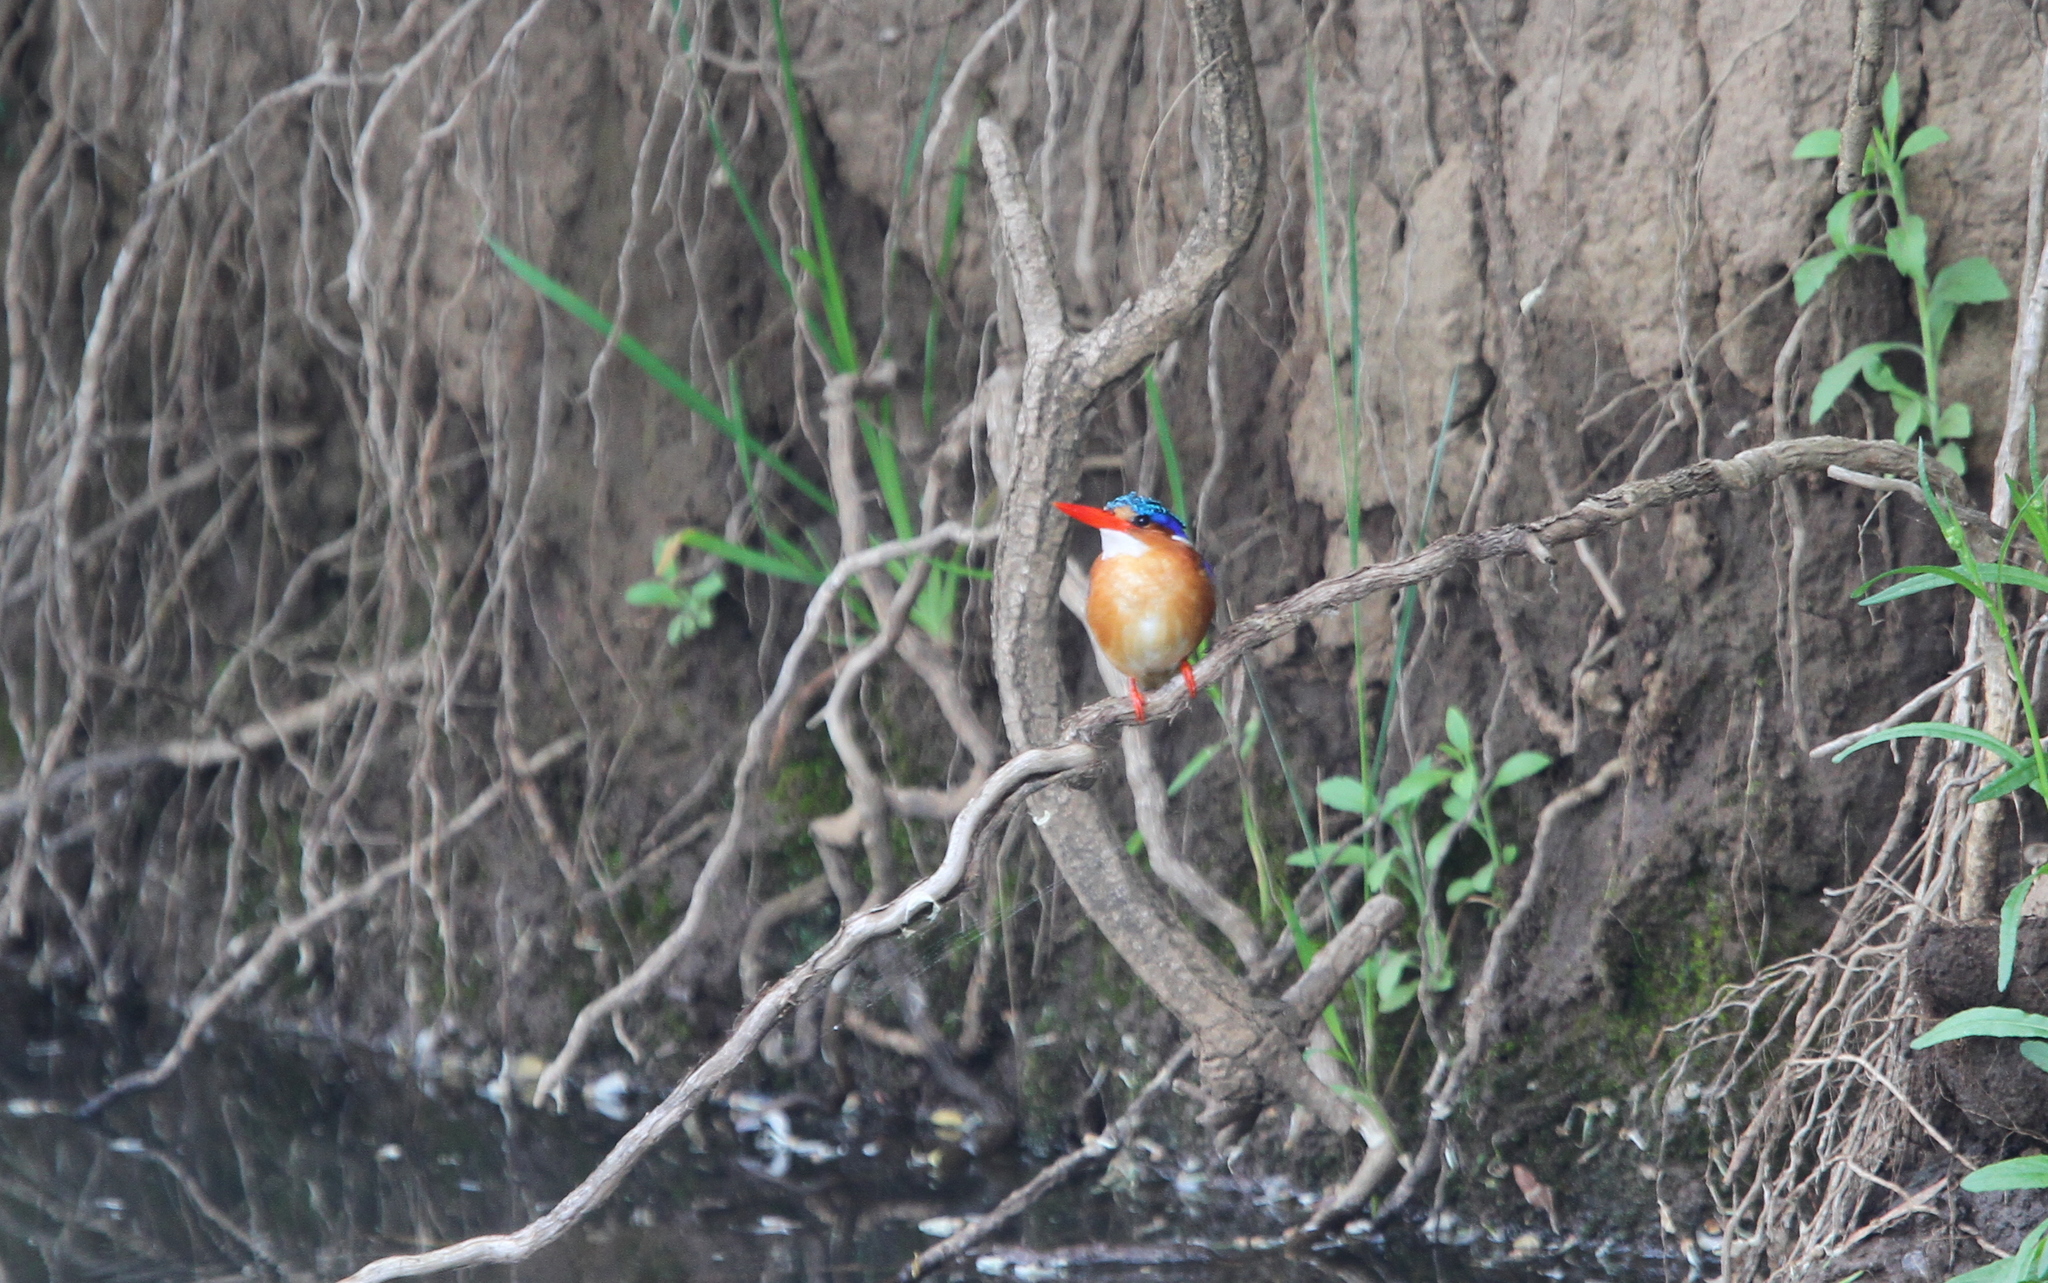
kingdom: Animalia
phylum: Chordata
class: Aves
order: Coraciiformes
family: Alcedinidae
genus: Corythornis
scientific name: Corythornis cristatus
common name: Malachite kingfisher
